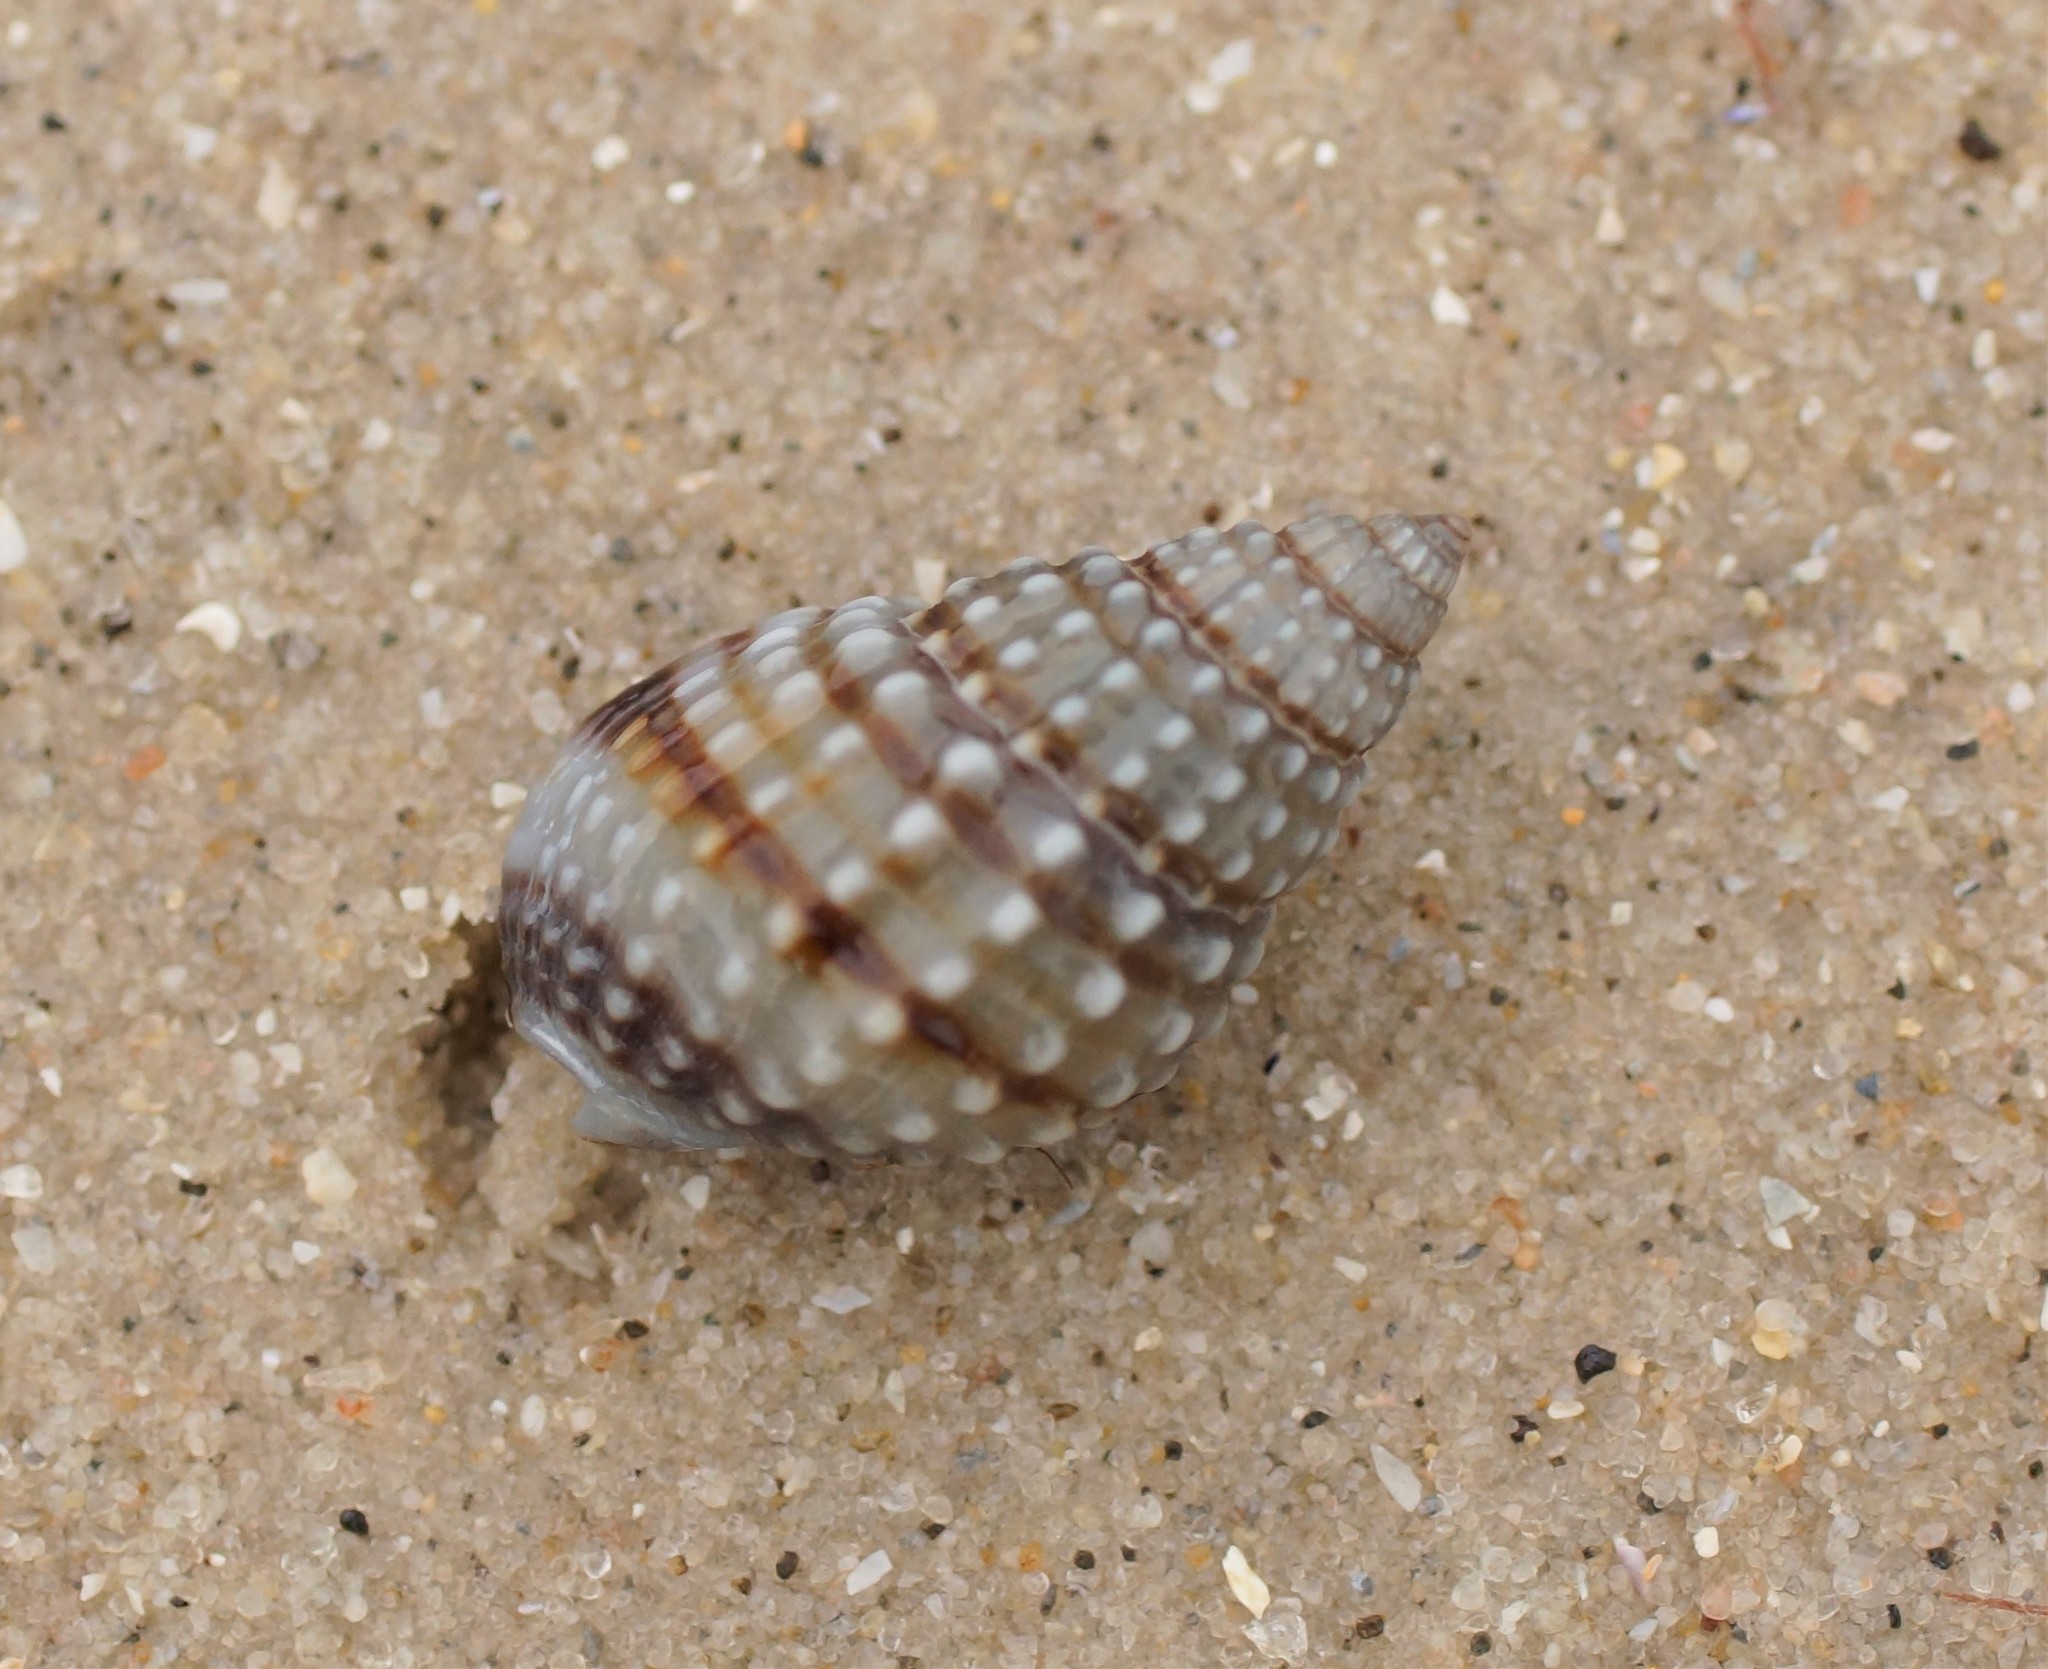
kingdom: Animalia
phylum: Mollusca
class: Gastropoda
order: Neogastropoda
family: Nassariidae
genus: Nassarius
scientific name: Nassarius pyrrhus
